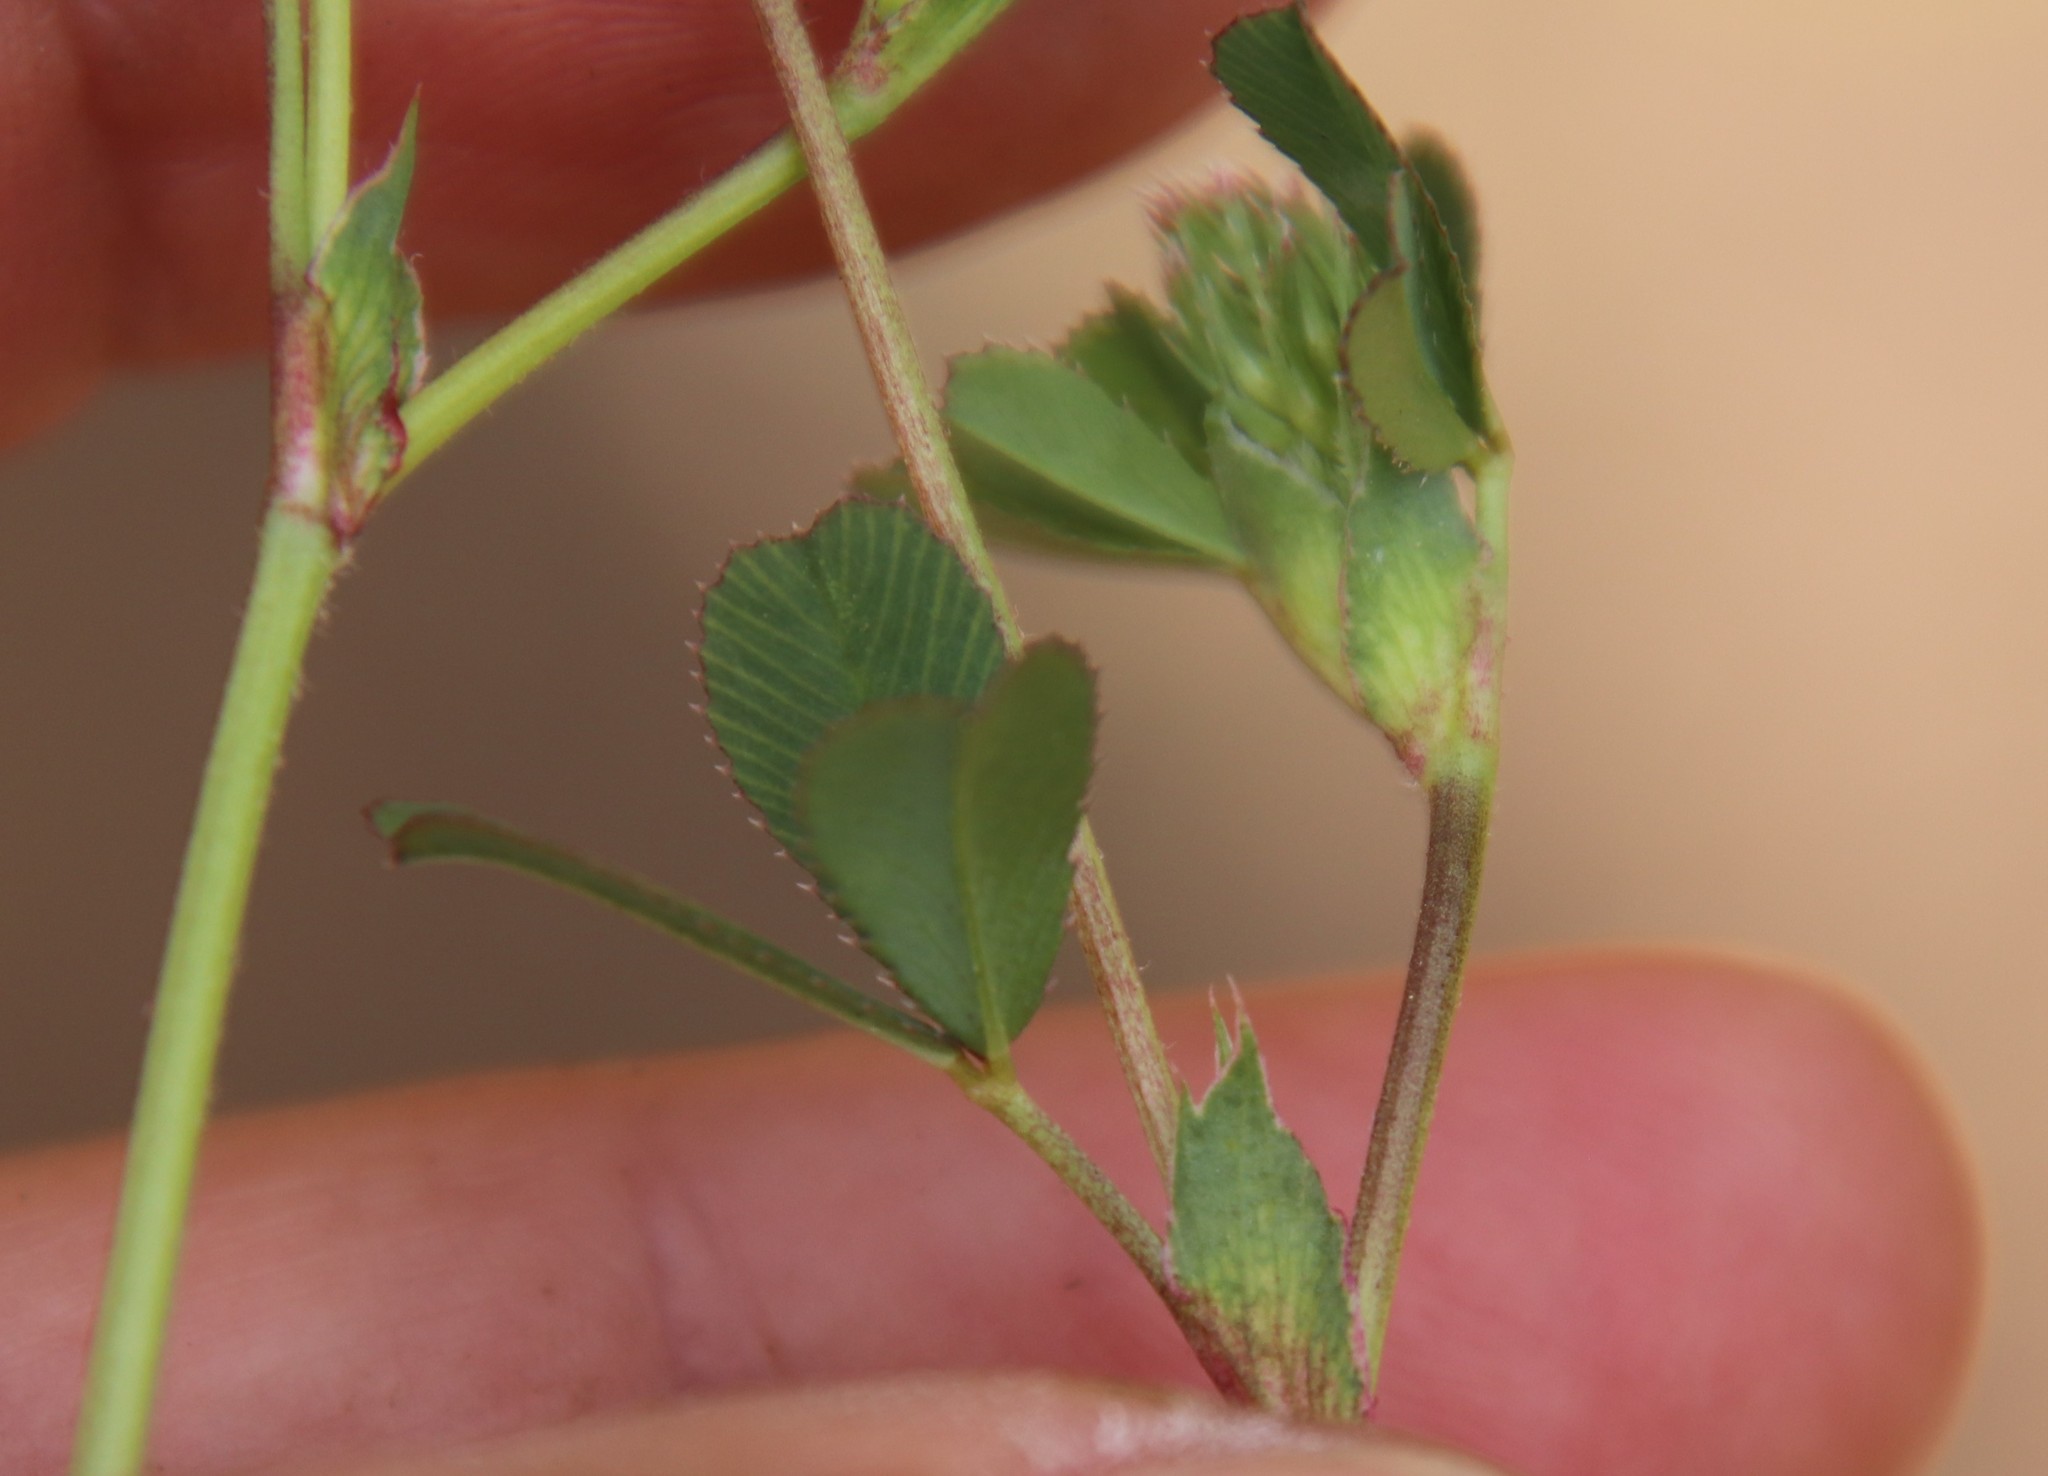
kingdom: Plantae
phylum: Tracheophyta
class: Magnoliopsida
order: Fabales
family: Fabaceae
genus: Trifolium
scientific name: Trifolium gracilentum
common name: Slender clover
